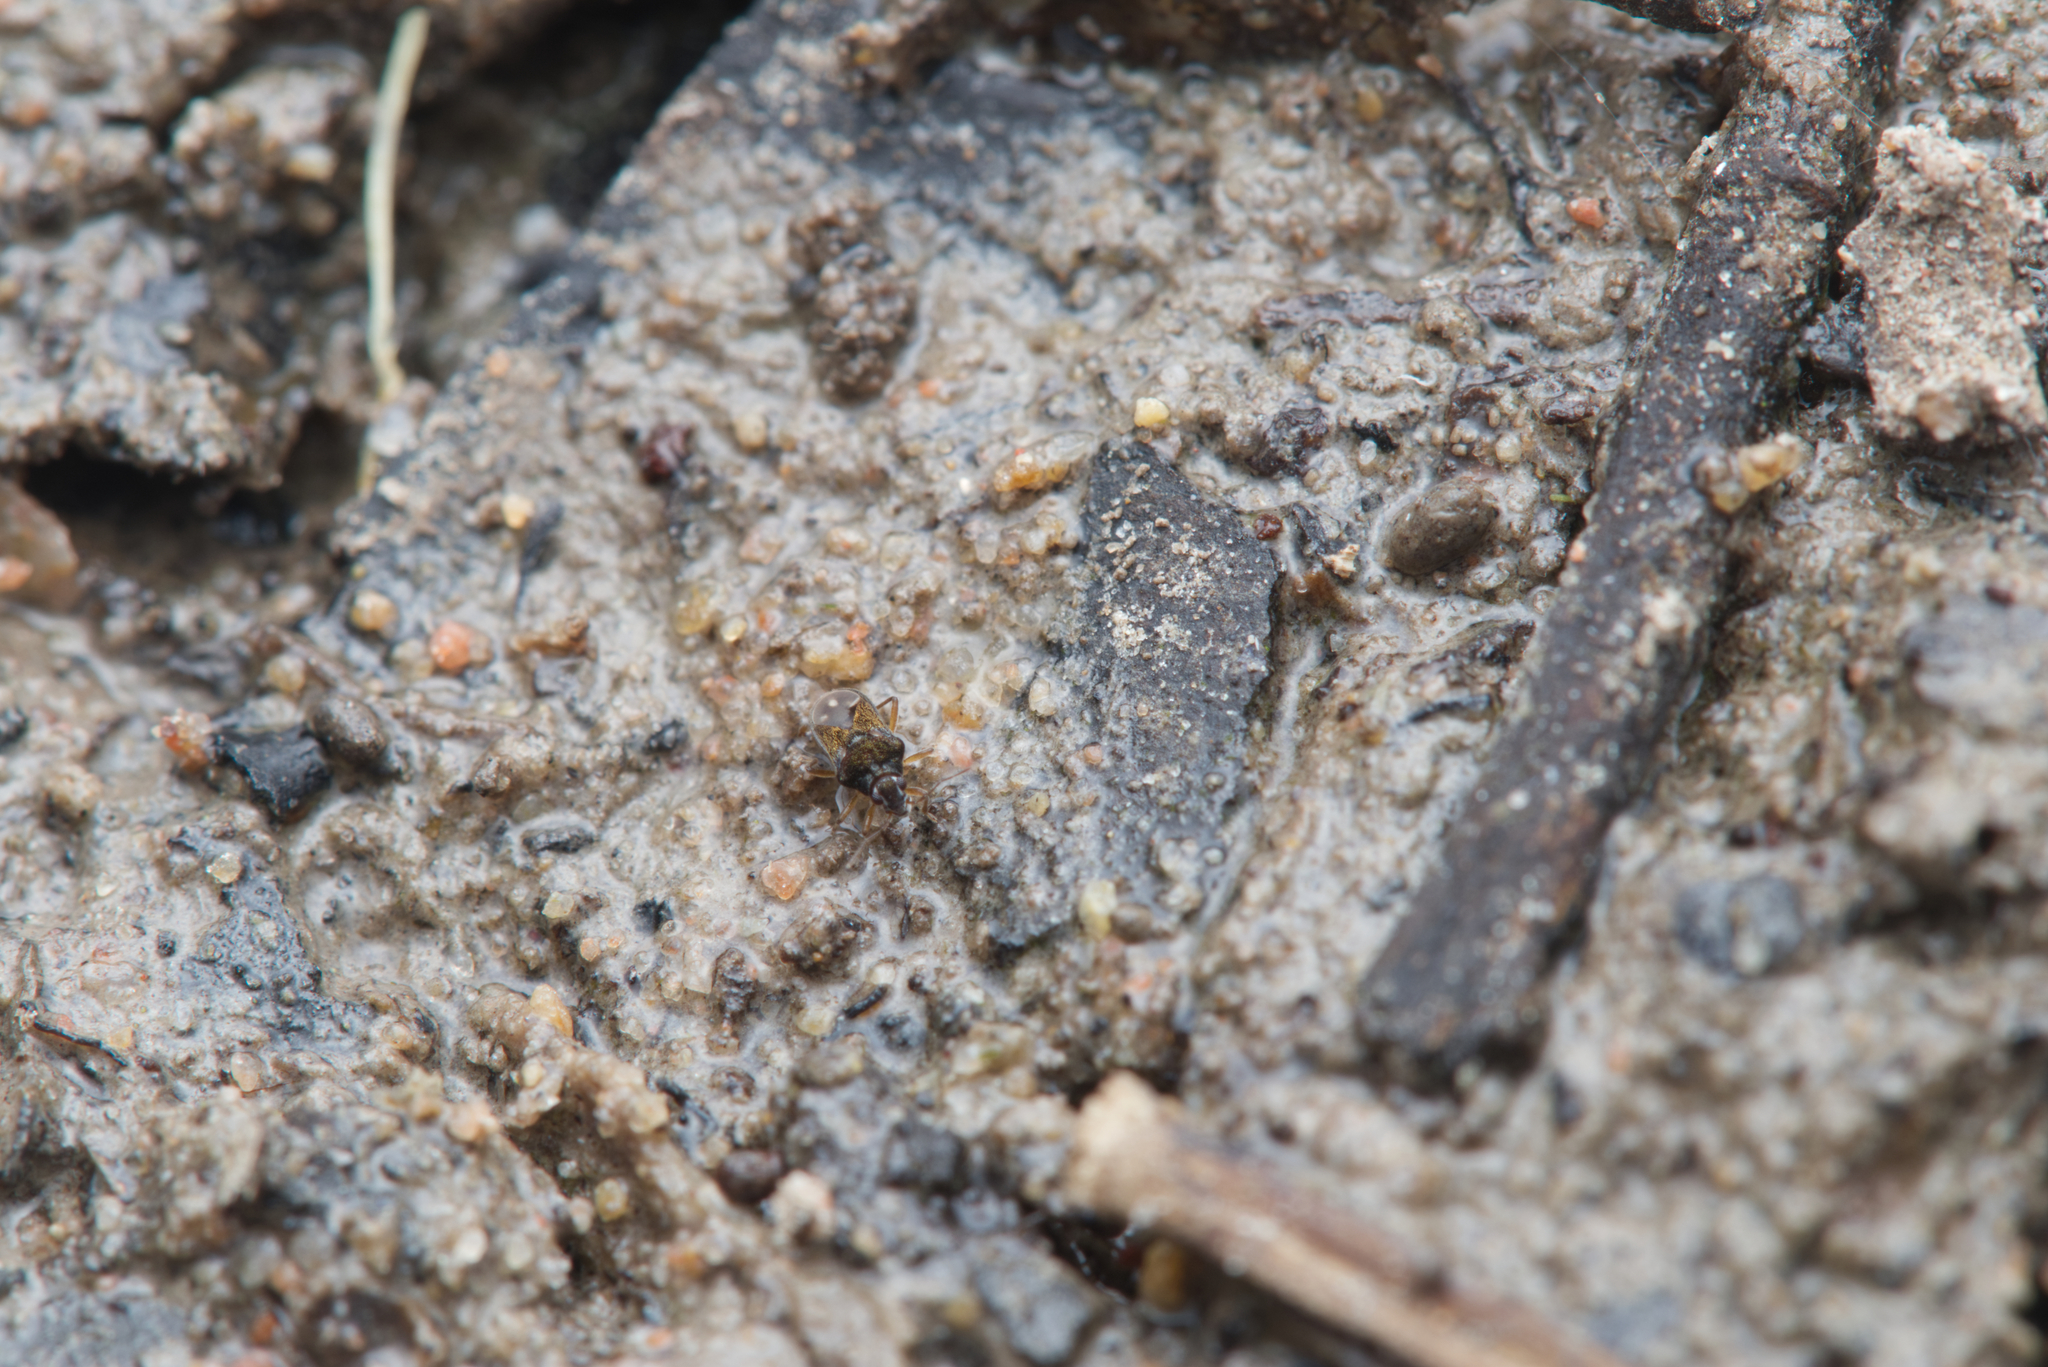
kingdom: Animalia
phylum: Arthropoda
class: Insecta
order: Hemiptera
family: Hebridae
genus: Hebrus
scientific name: Hebrus
